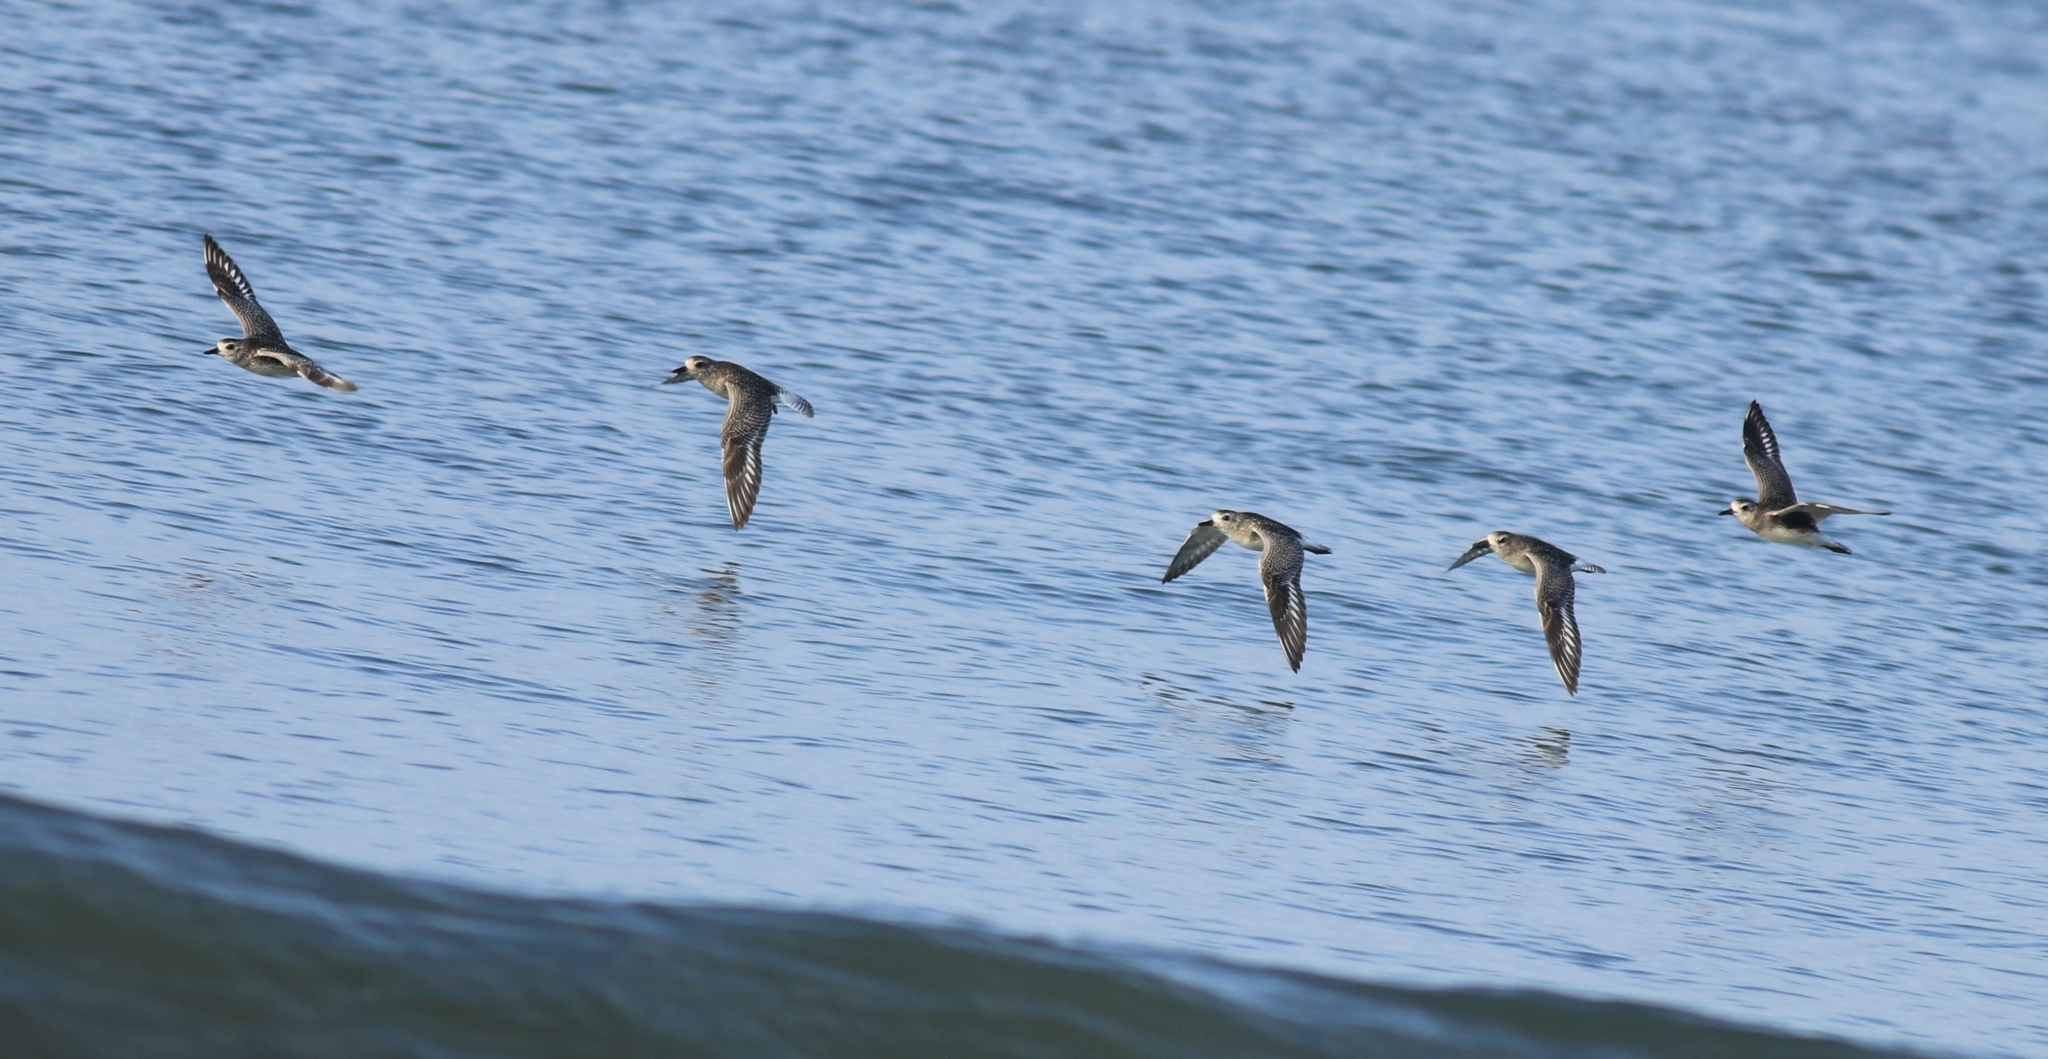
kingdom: Animalia
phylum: Chordata
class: Aves
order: Charadriiformes
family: Charadriidae
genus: Pluvialis
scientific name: Pluvialis squatarola
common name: Grey plover
